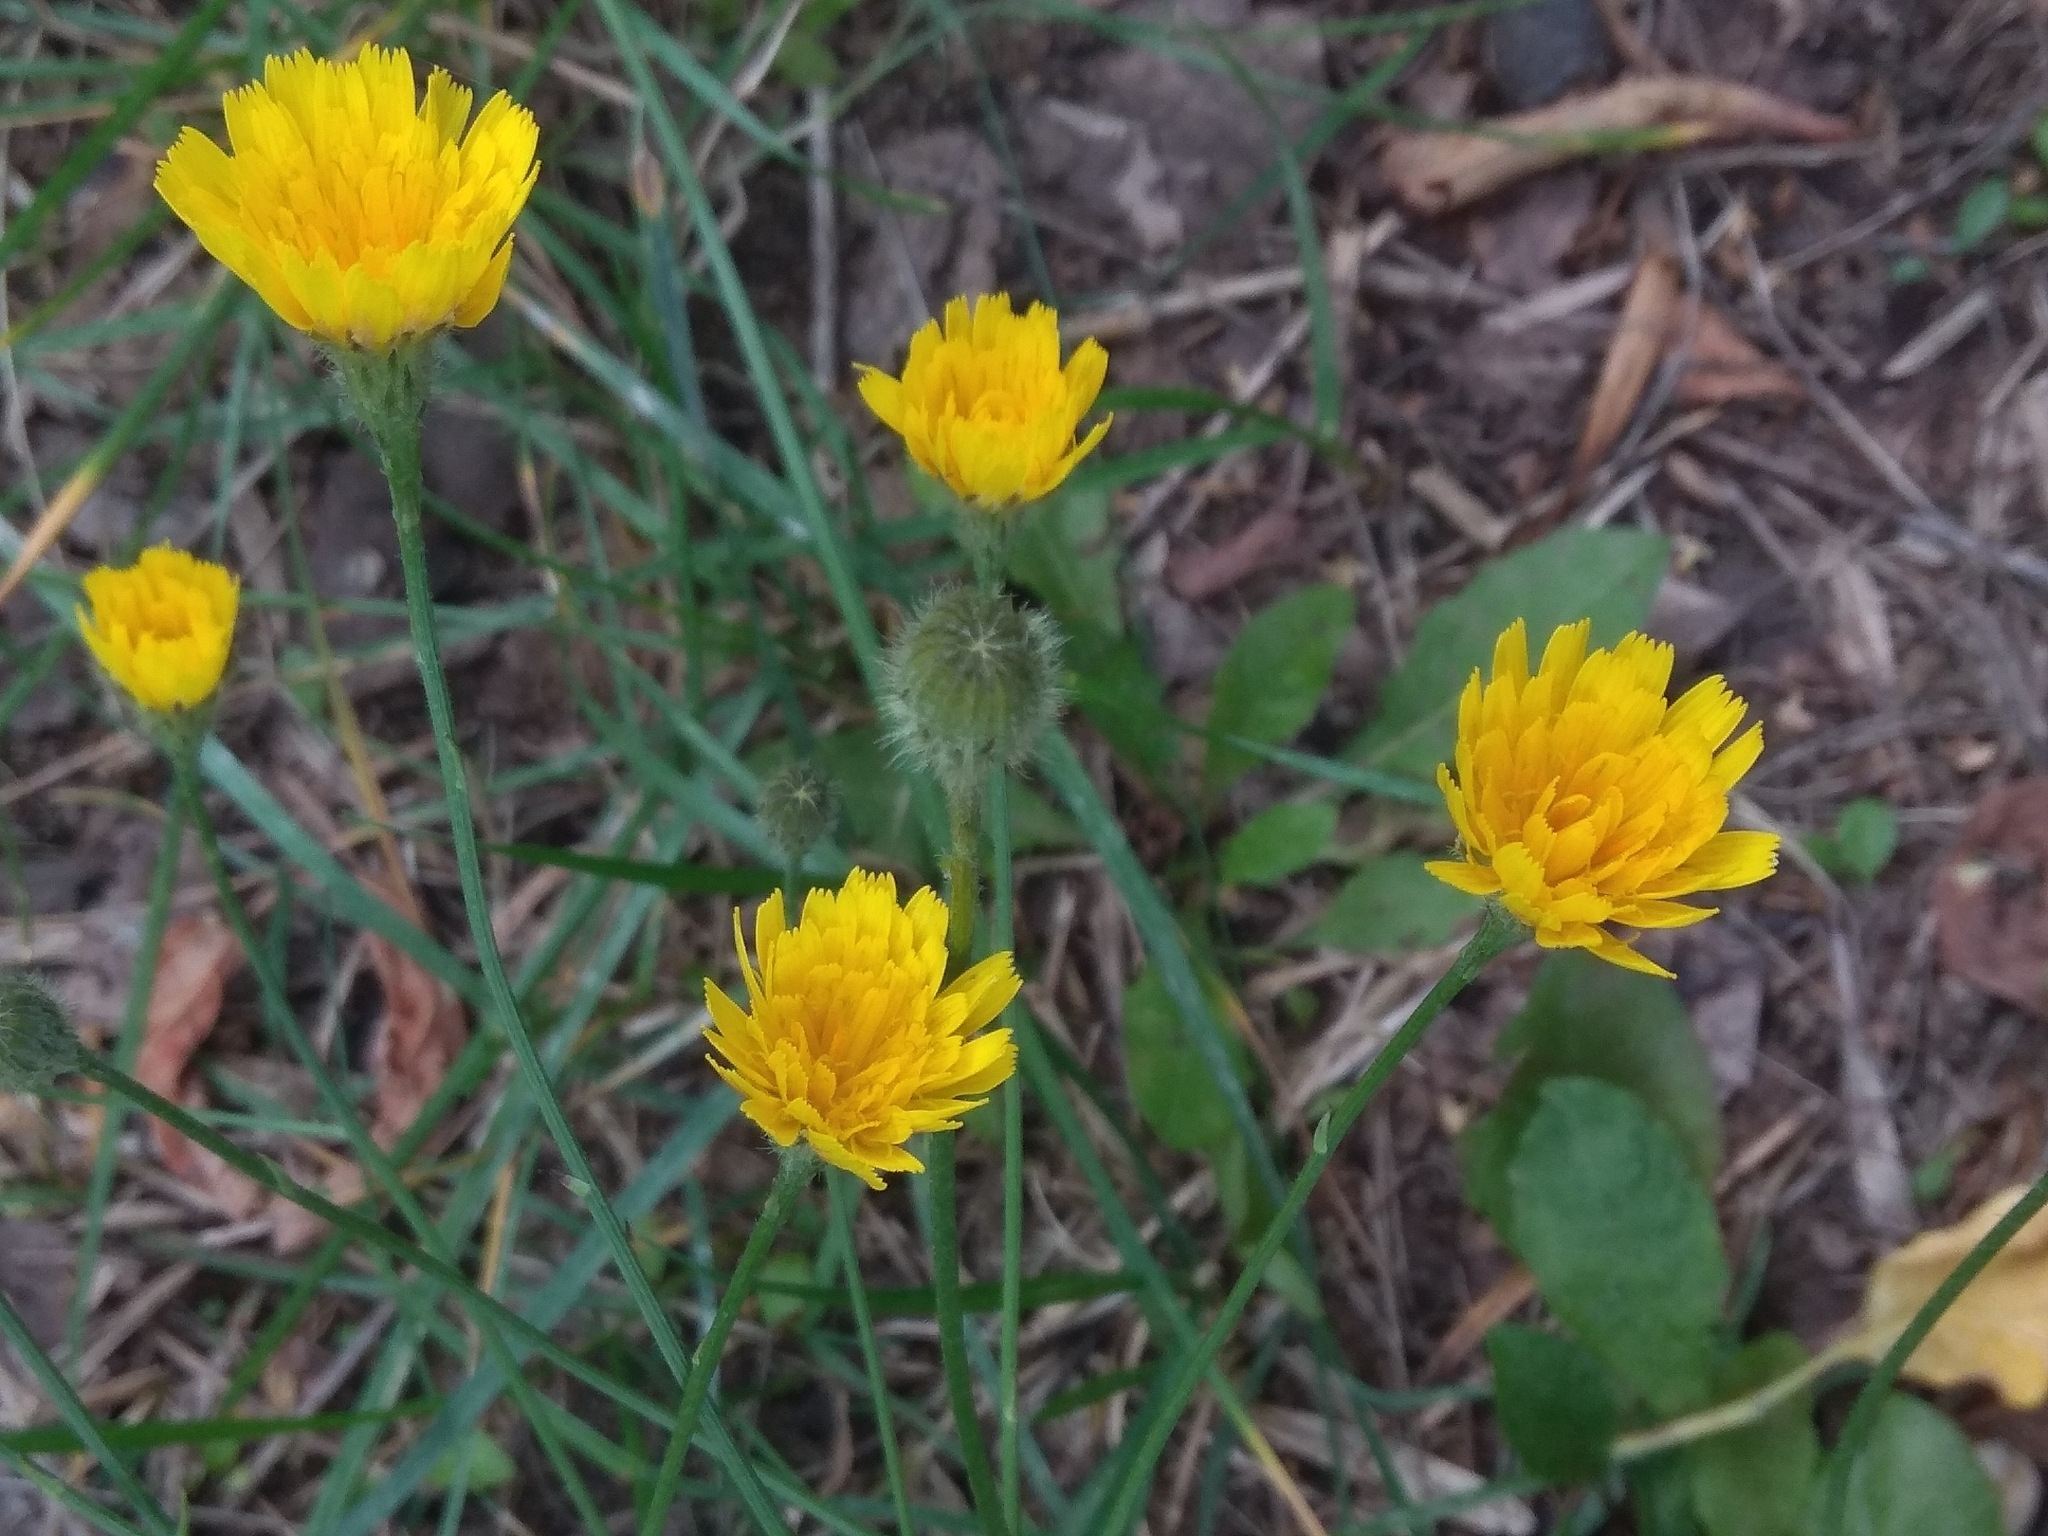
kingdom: Plantae
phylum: Tracheophyta
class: Magnoliopsida
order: Asterales
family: Asteraceae
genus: Scorzoneroides
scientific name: Scorzoneroides autumnalis
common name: Autumn hawkbit
